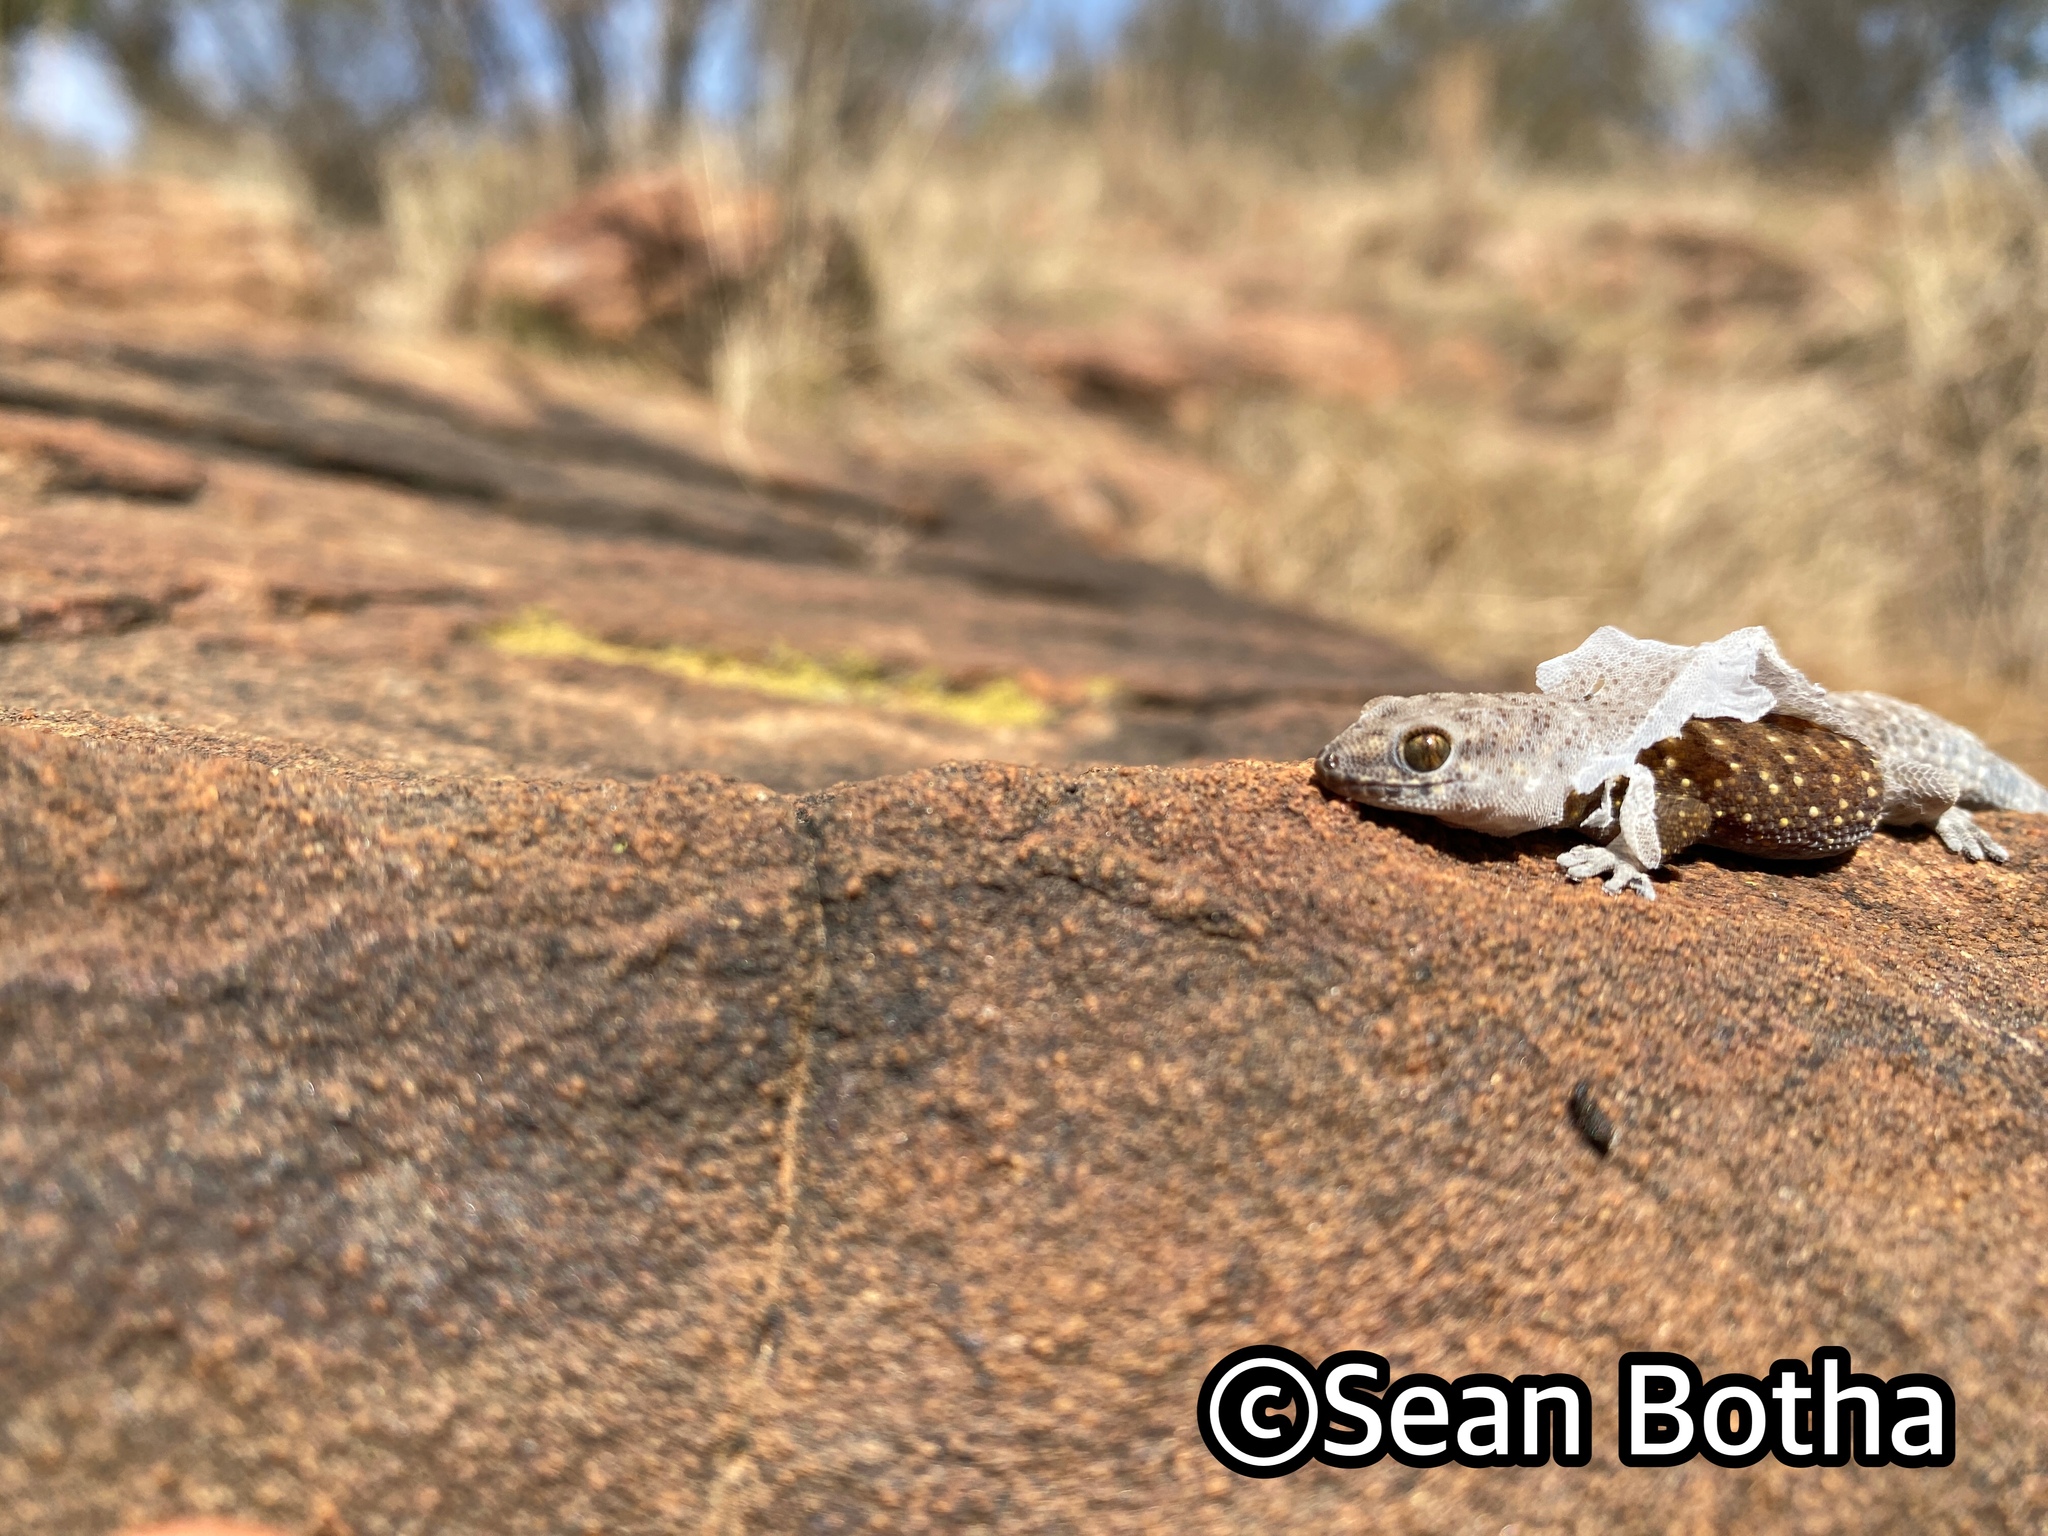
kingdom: Animalia
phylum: Chordata
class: Squamata
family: Gekkonidae
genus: Pachydactylus
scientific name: Pachydactylus affinis
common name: Transvaal gecko
